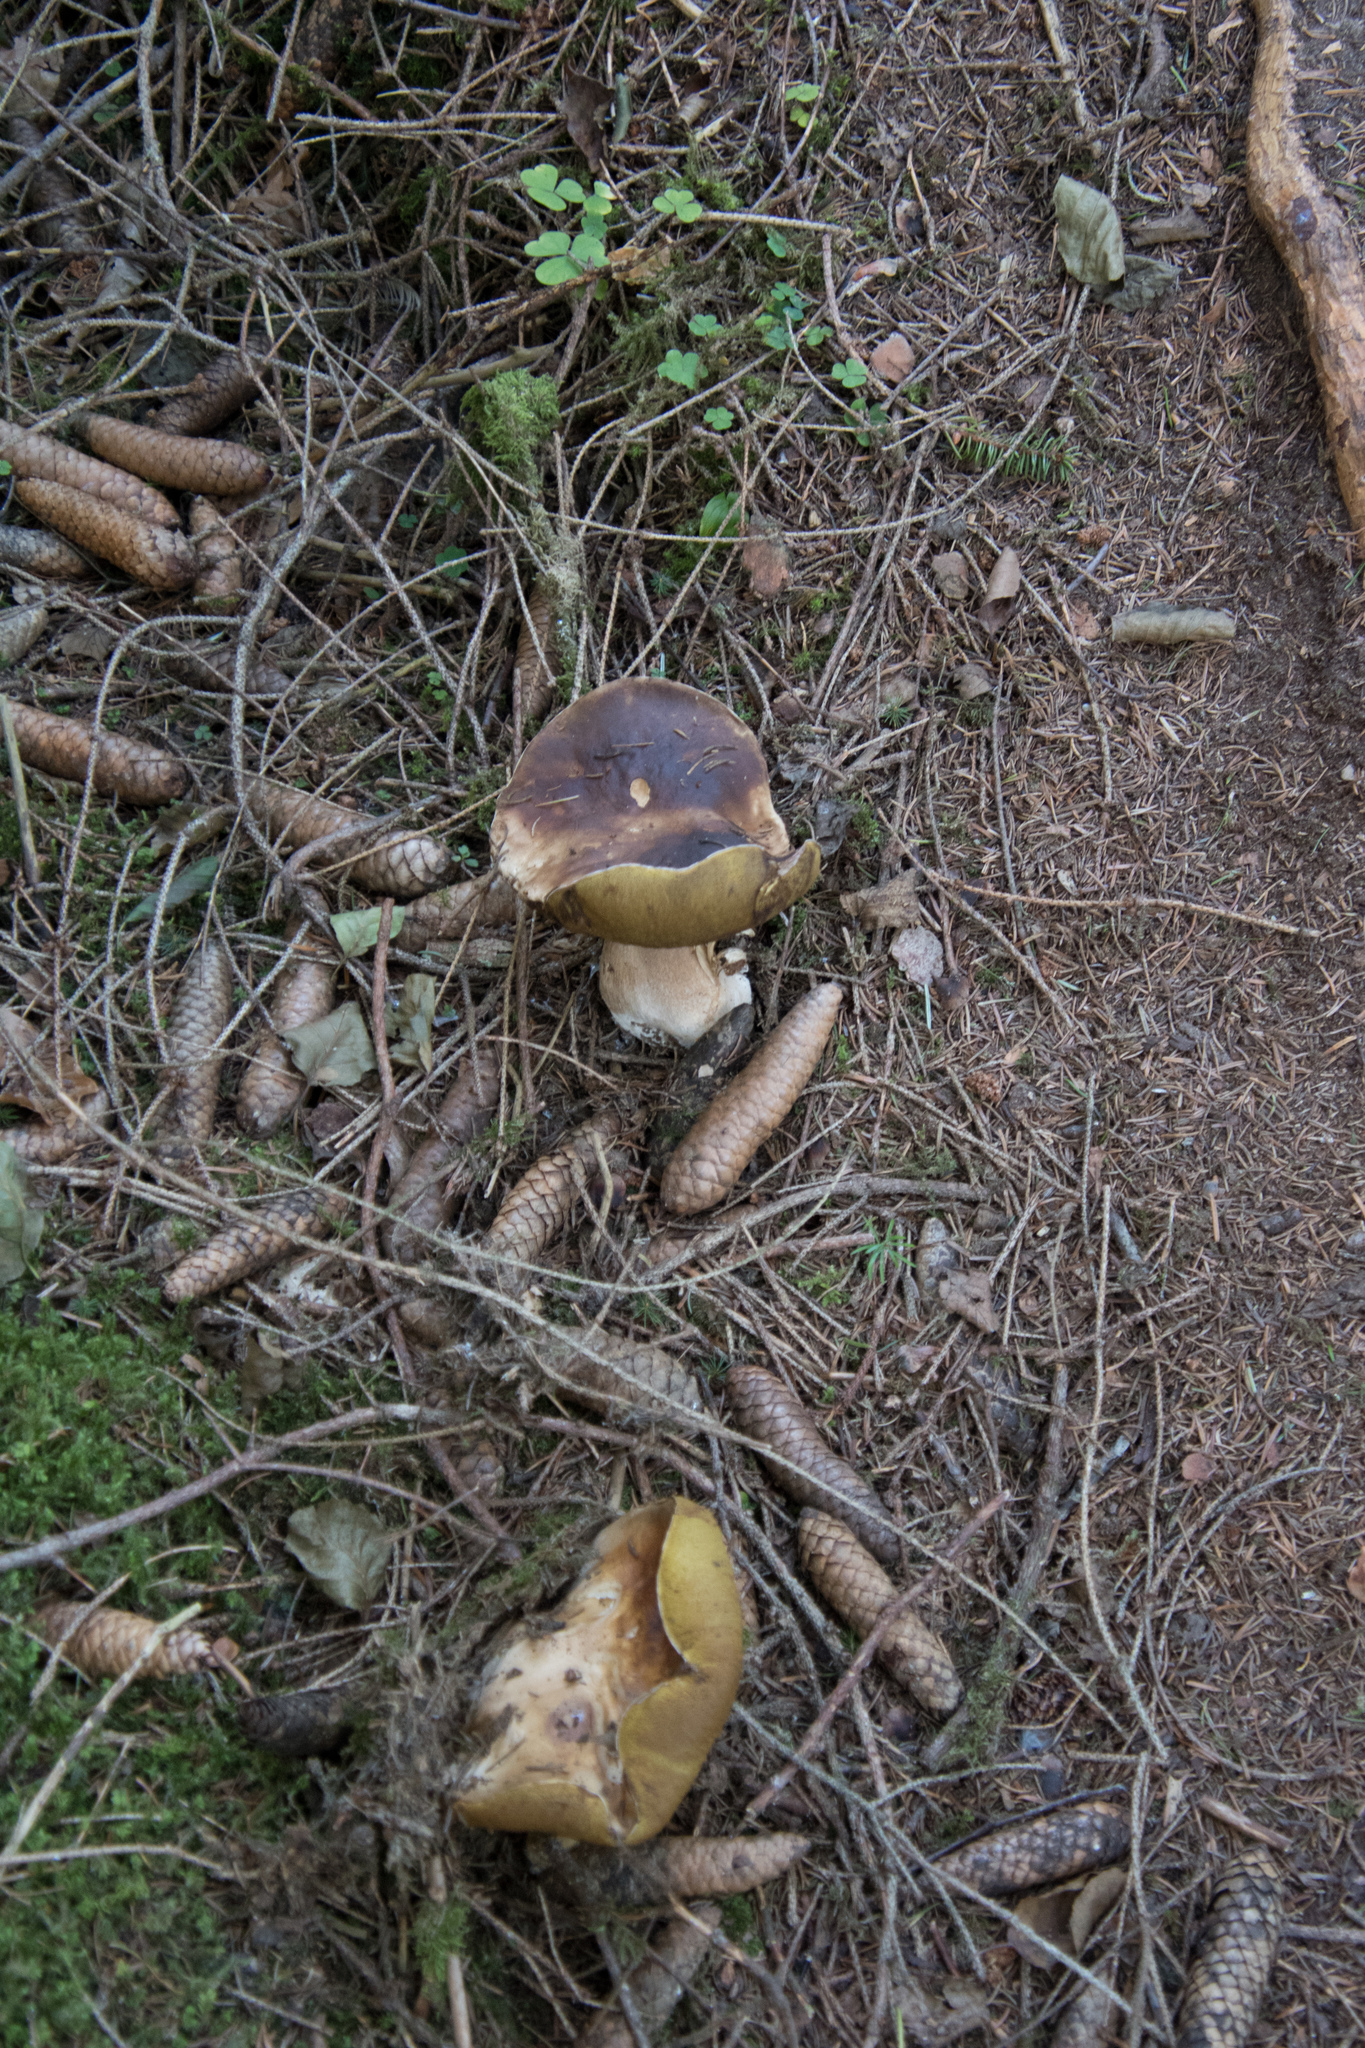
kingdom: Fungi
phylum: Basidiomycota
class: Agaricomycetes
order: Boletales
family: Boletaceae
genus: Boletus
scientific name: Boletus edulis
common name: Cep
